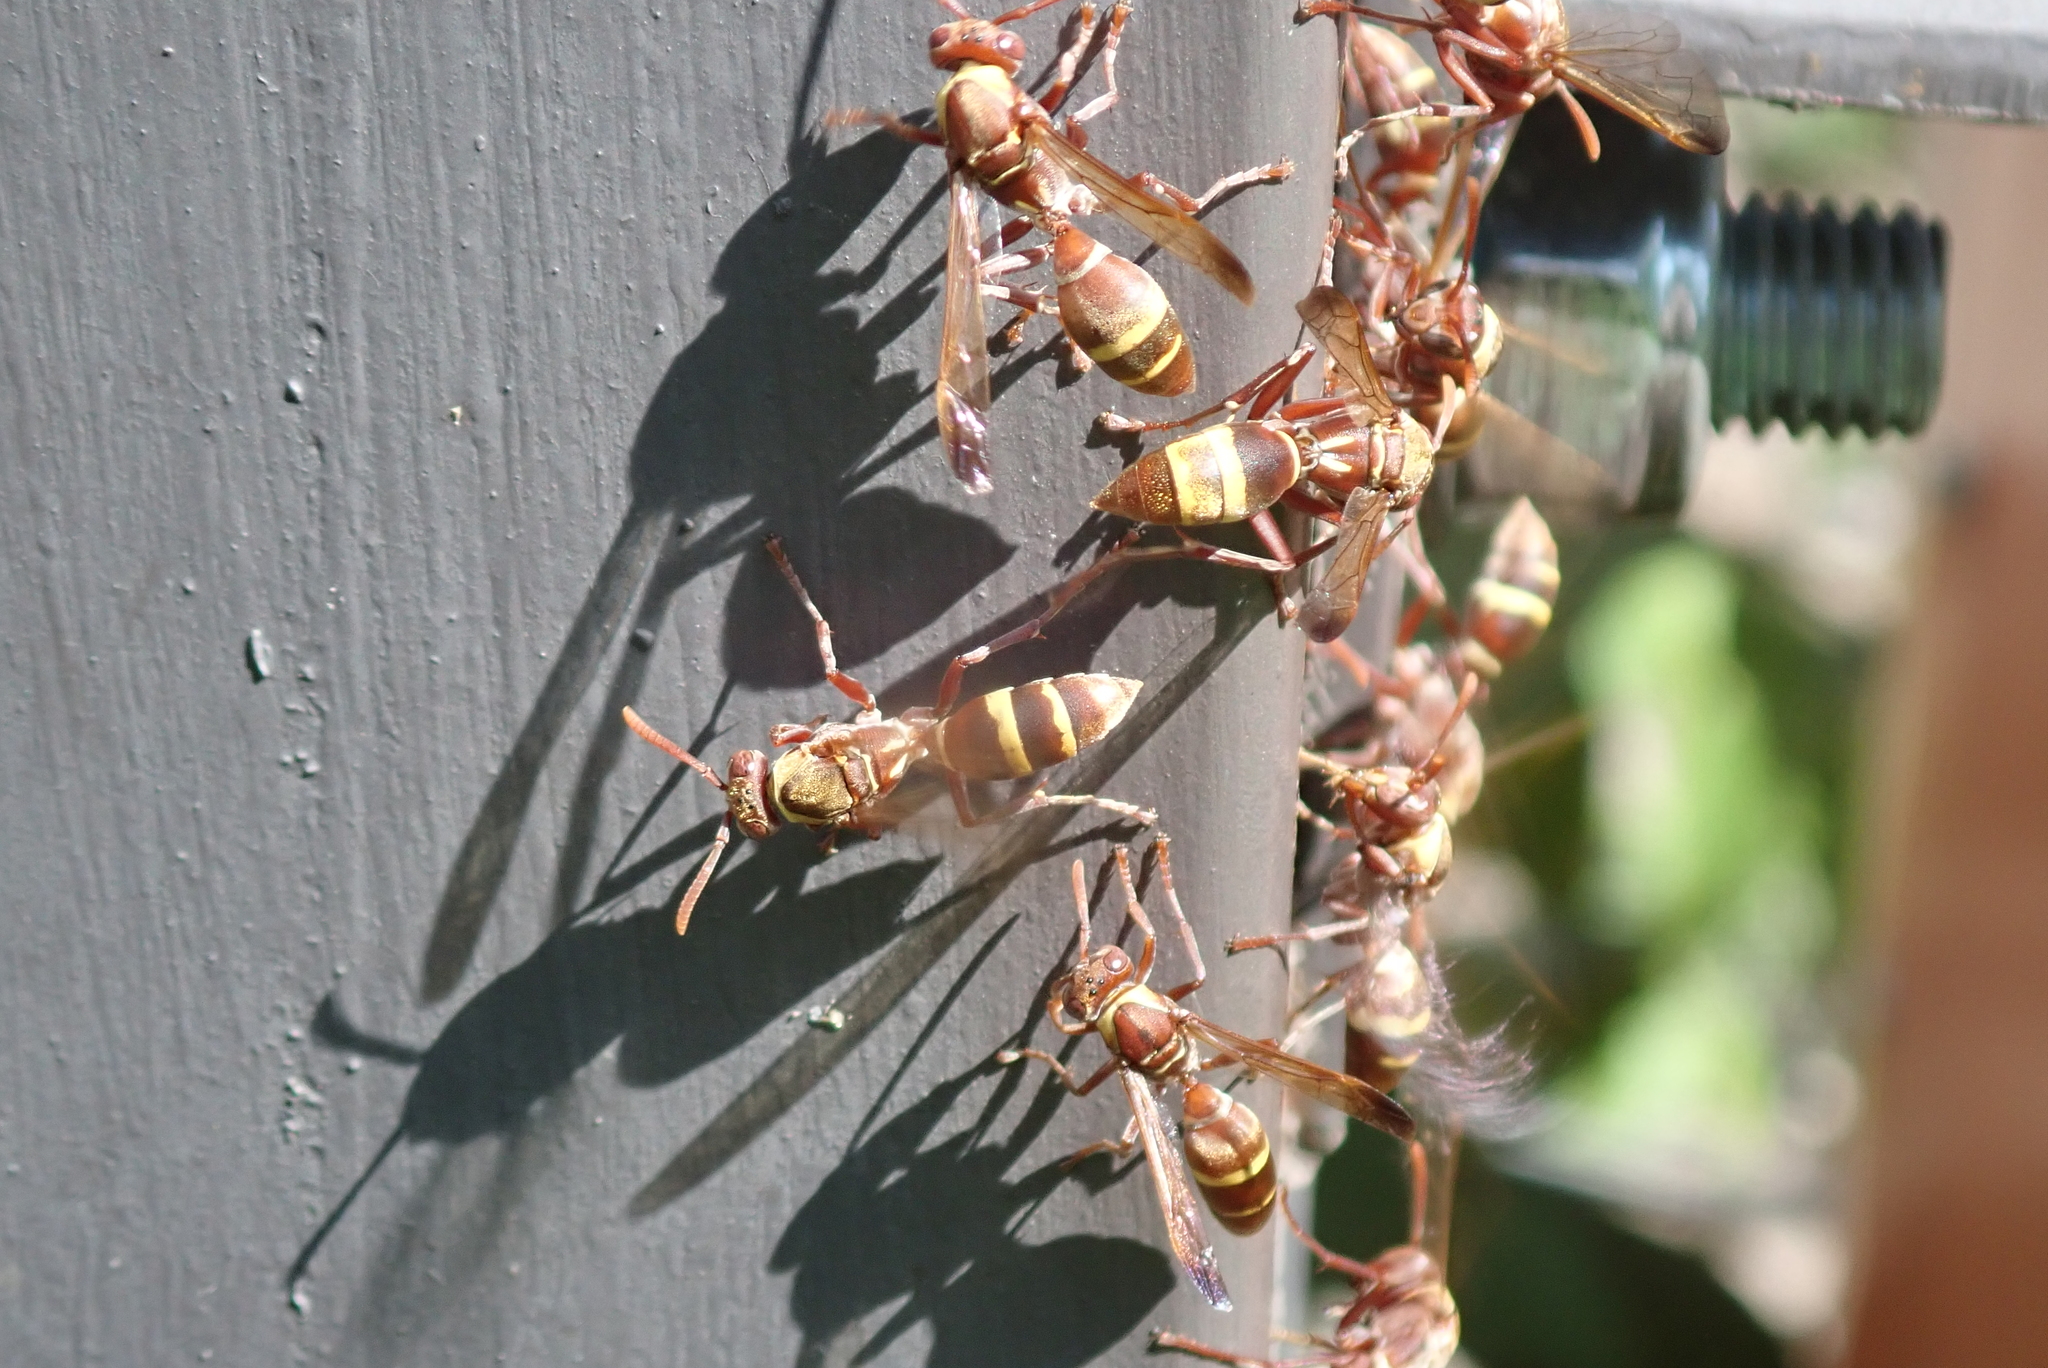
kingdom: Animalia
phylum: Arthropoda
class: Insecta
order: Hymenoptera
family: Eumenidae
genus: Polistes
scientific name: Polistes badius
